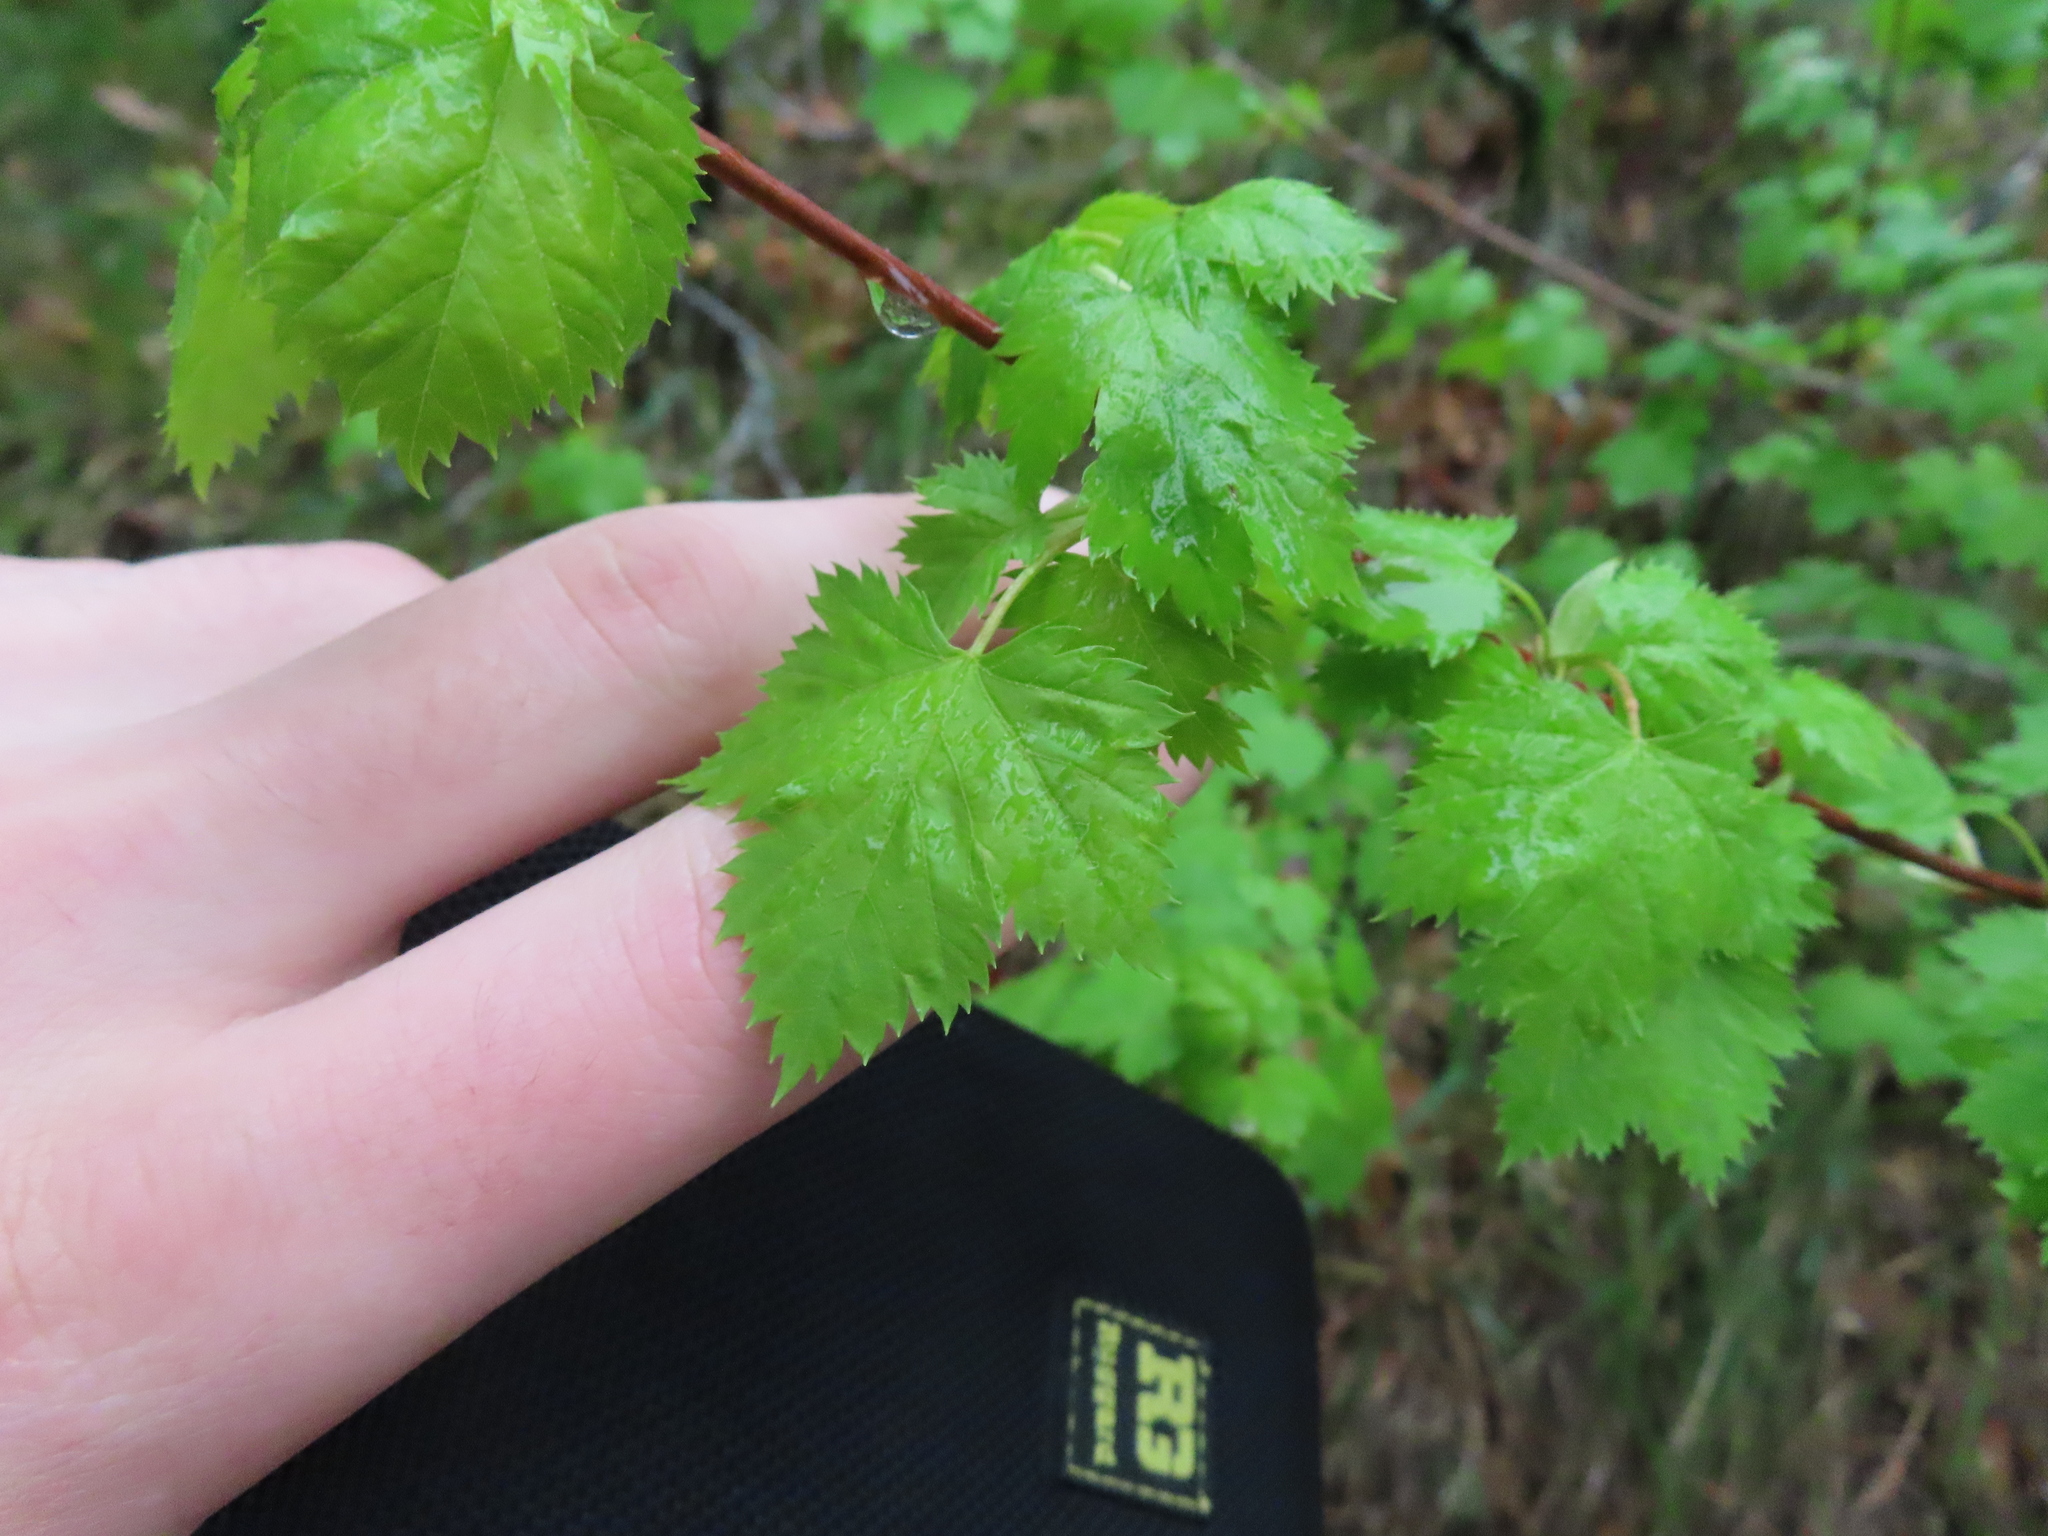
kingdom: Plantae
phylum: Tracheophyta
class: Magnoliopsida
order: Sapindales
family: Sapindaceae
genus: Acer
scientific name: Acer glabrum
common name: Rocky mountain maple
